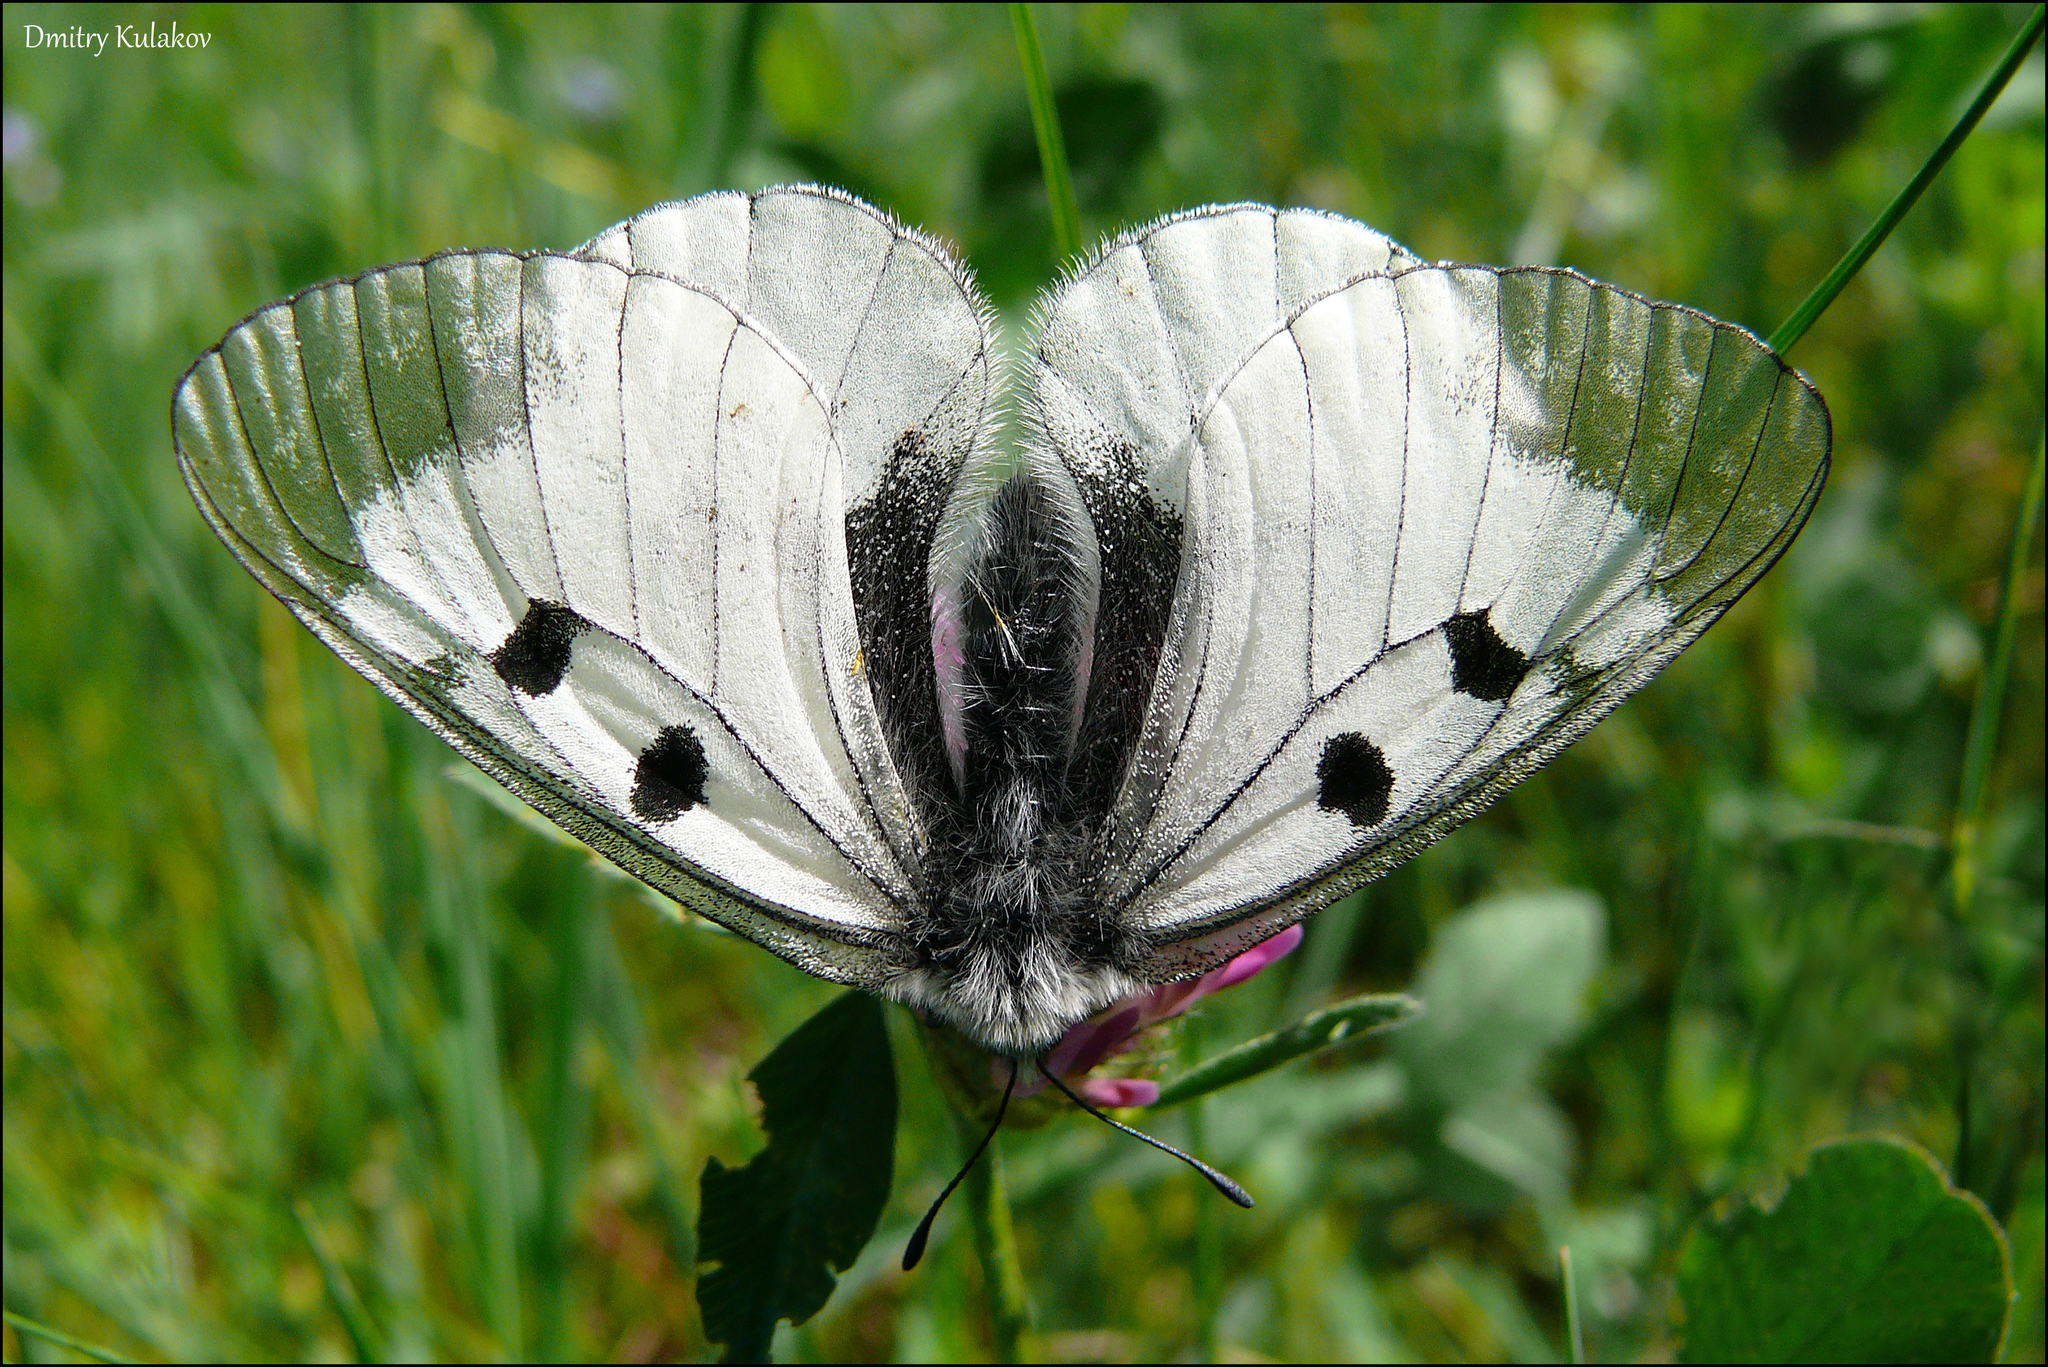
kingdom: Animalia
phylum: Arthropoda
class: Insecta
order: Lepidoptera
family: Papilionidae
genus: Parnassius
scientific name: Parnassius mnemosyne
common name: Clouded apollo
